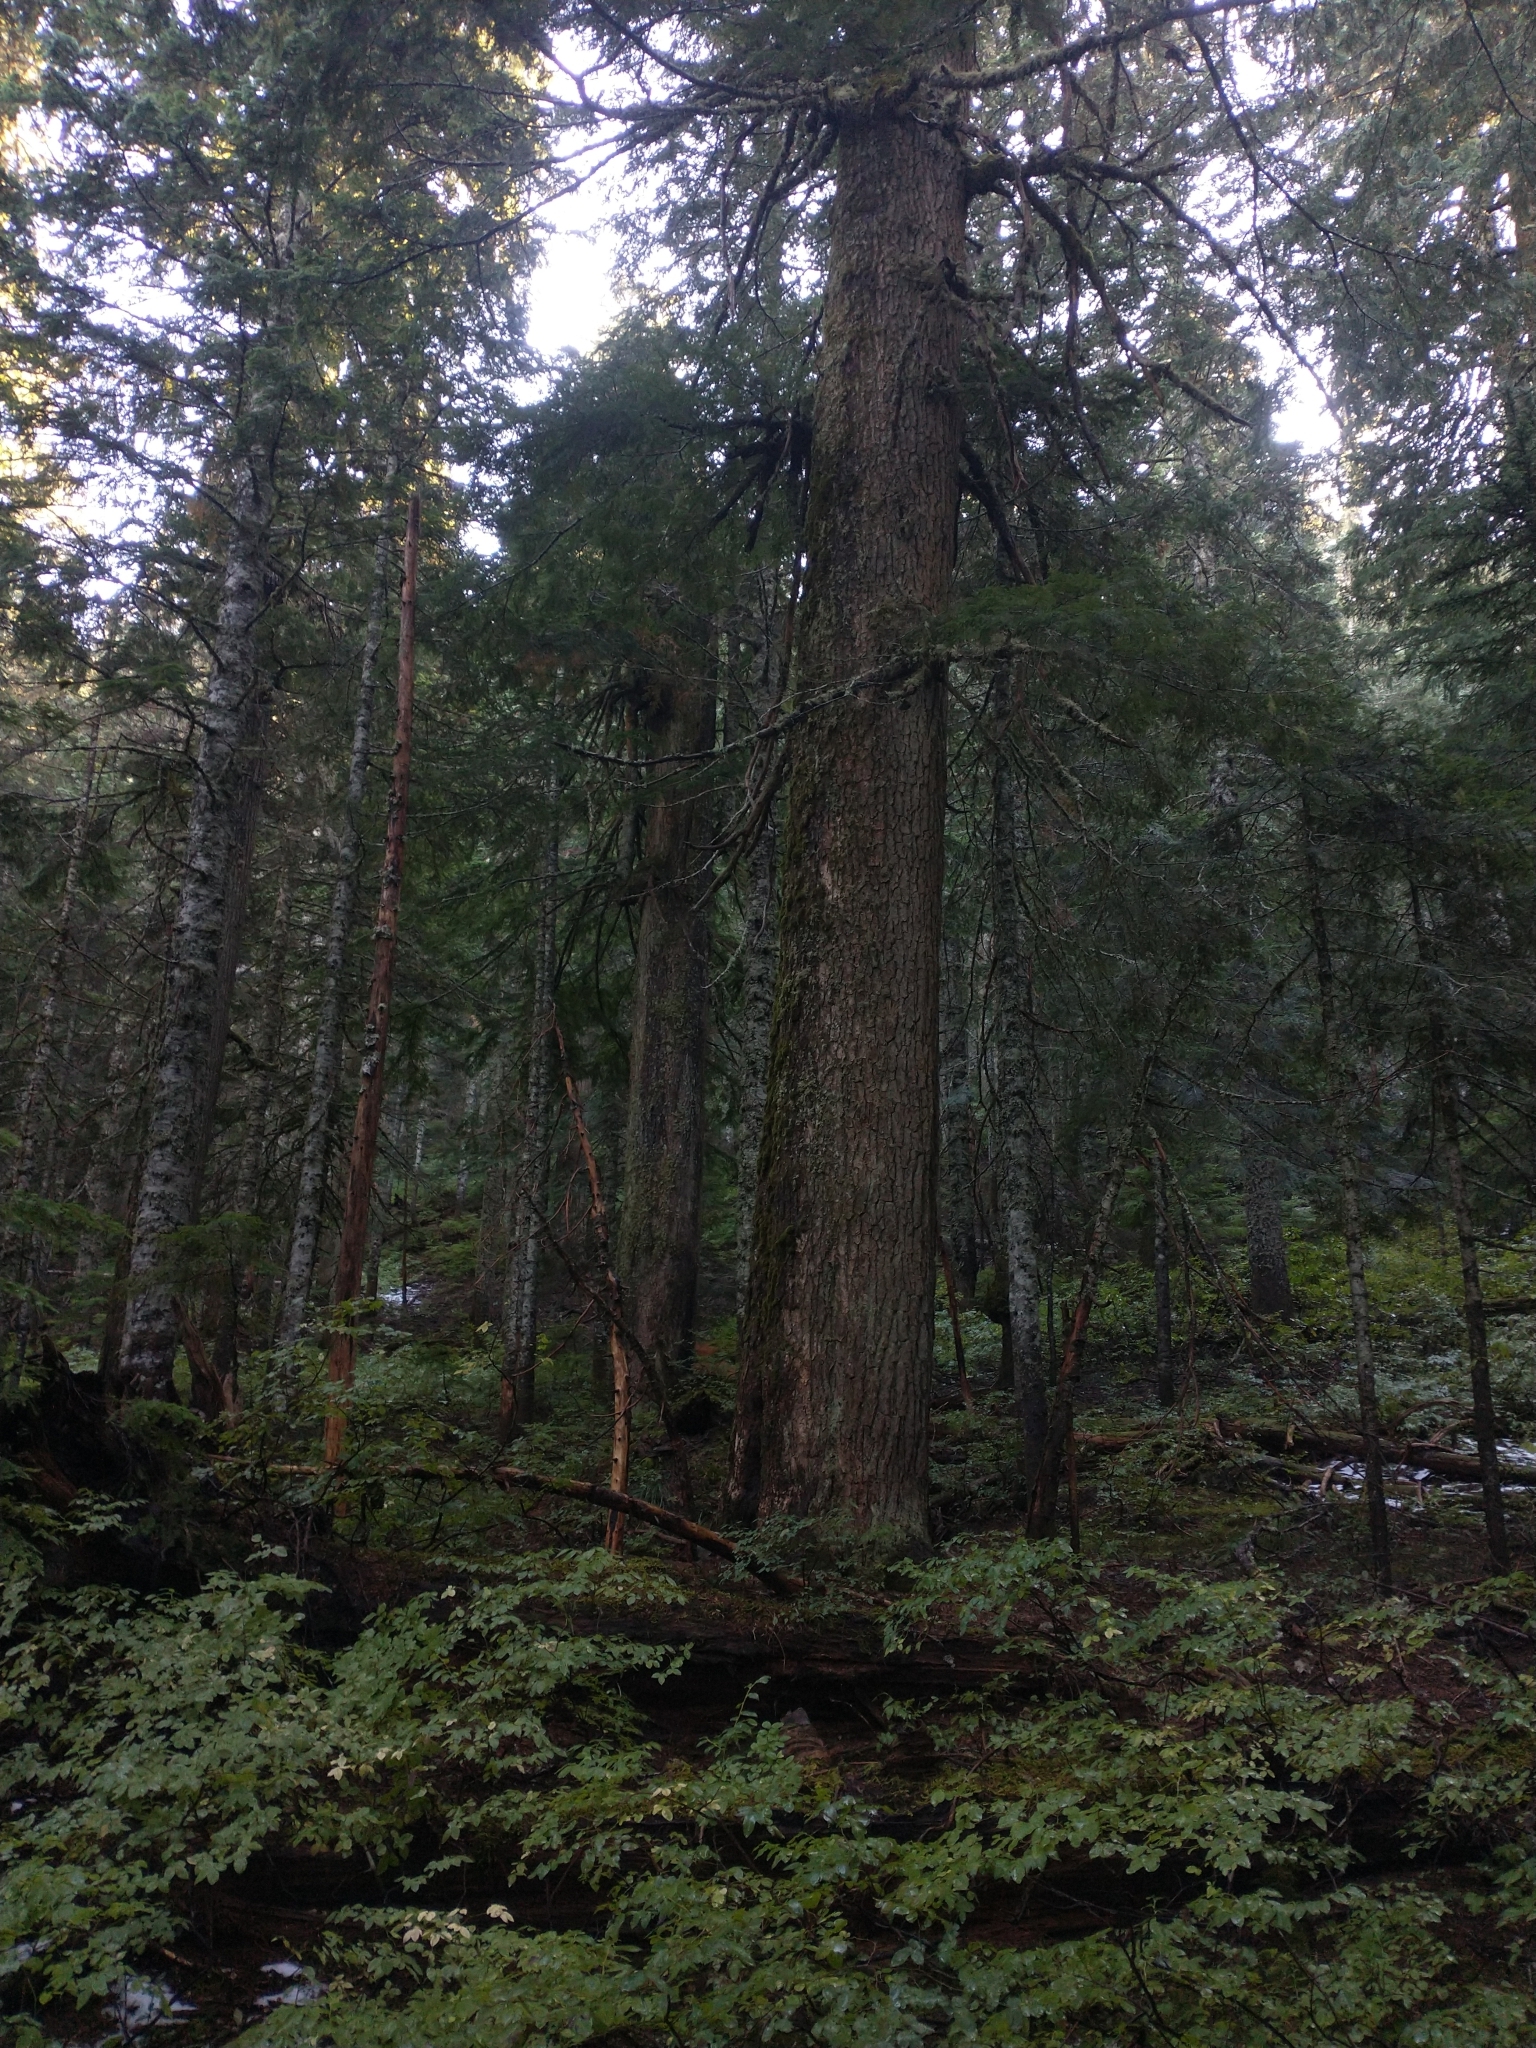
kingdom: Plantae
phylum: Tracheophyta
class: Pinopsida
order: Pinales
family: Pinaceae
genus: Tsuga
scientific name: Tsuga heterophylla
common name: Western hemlock
